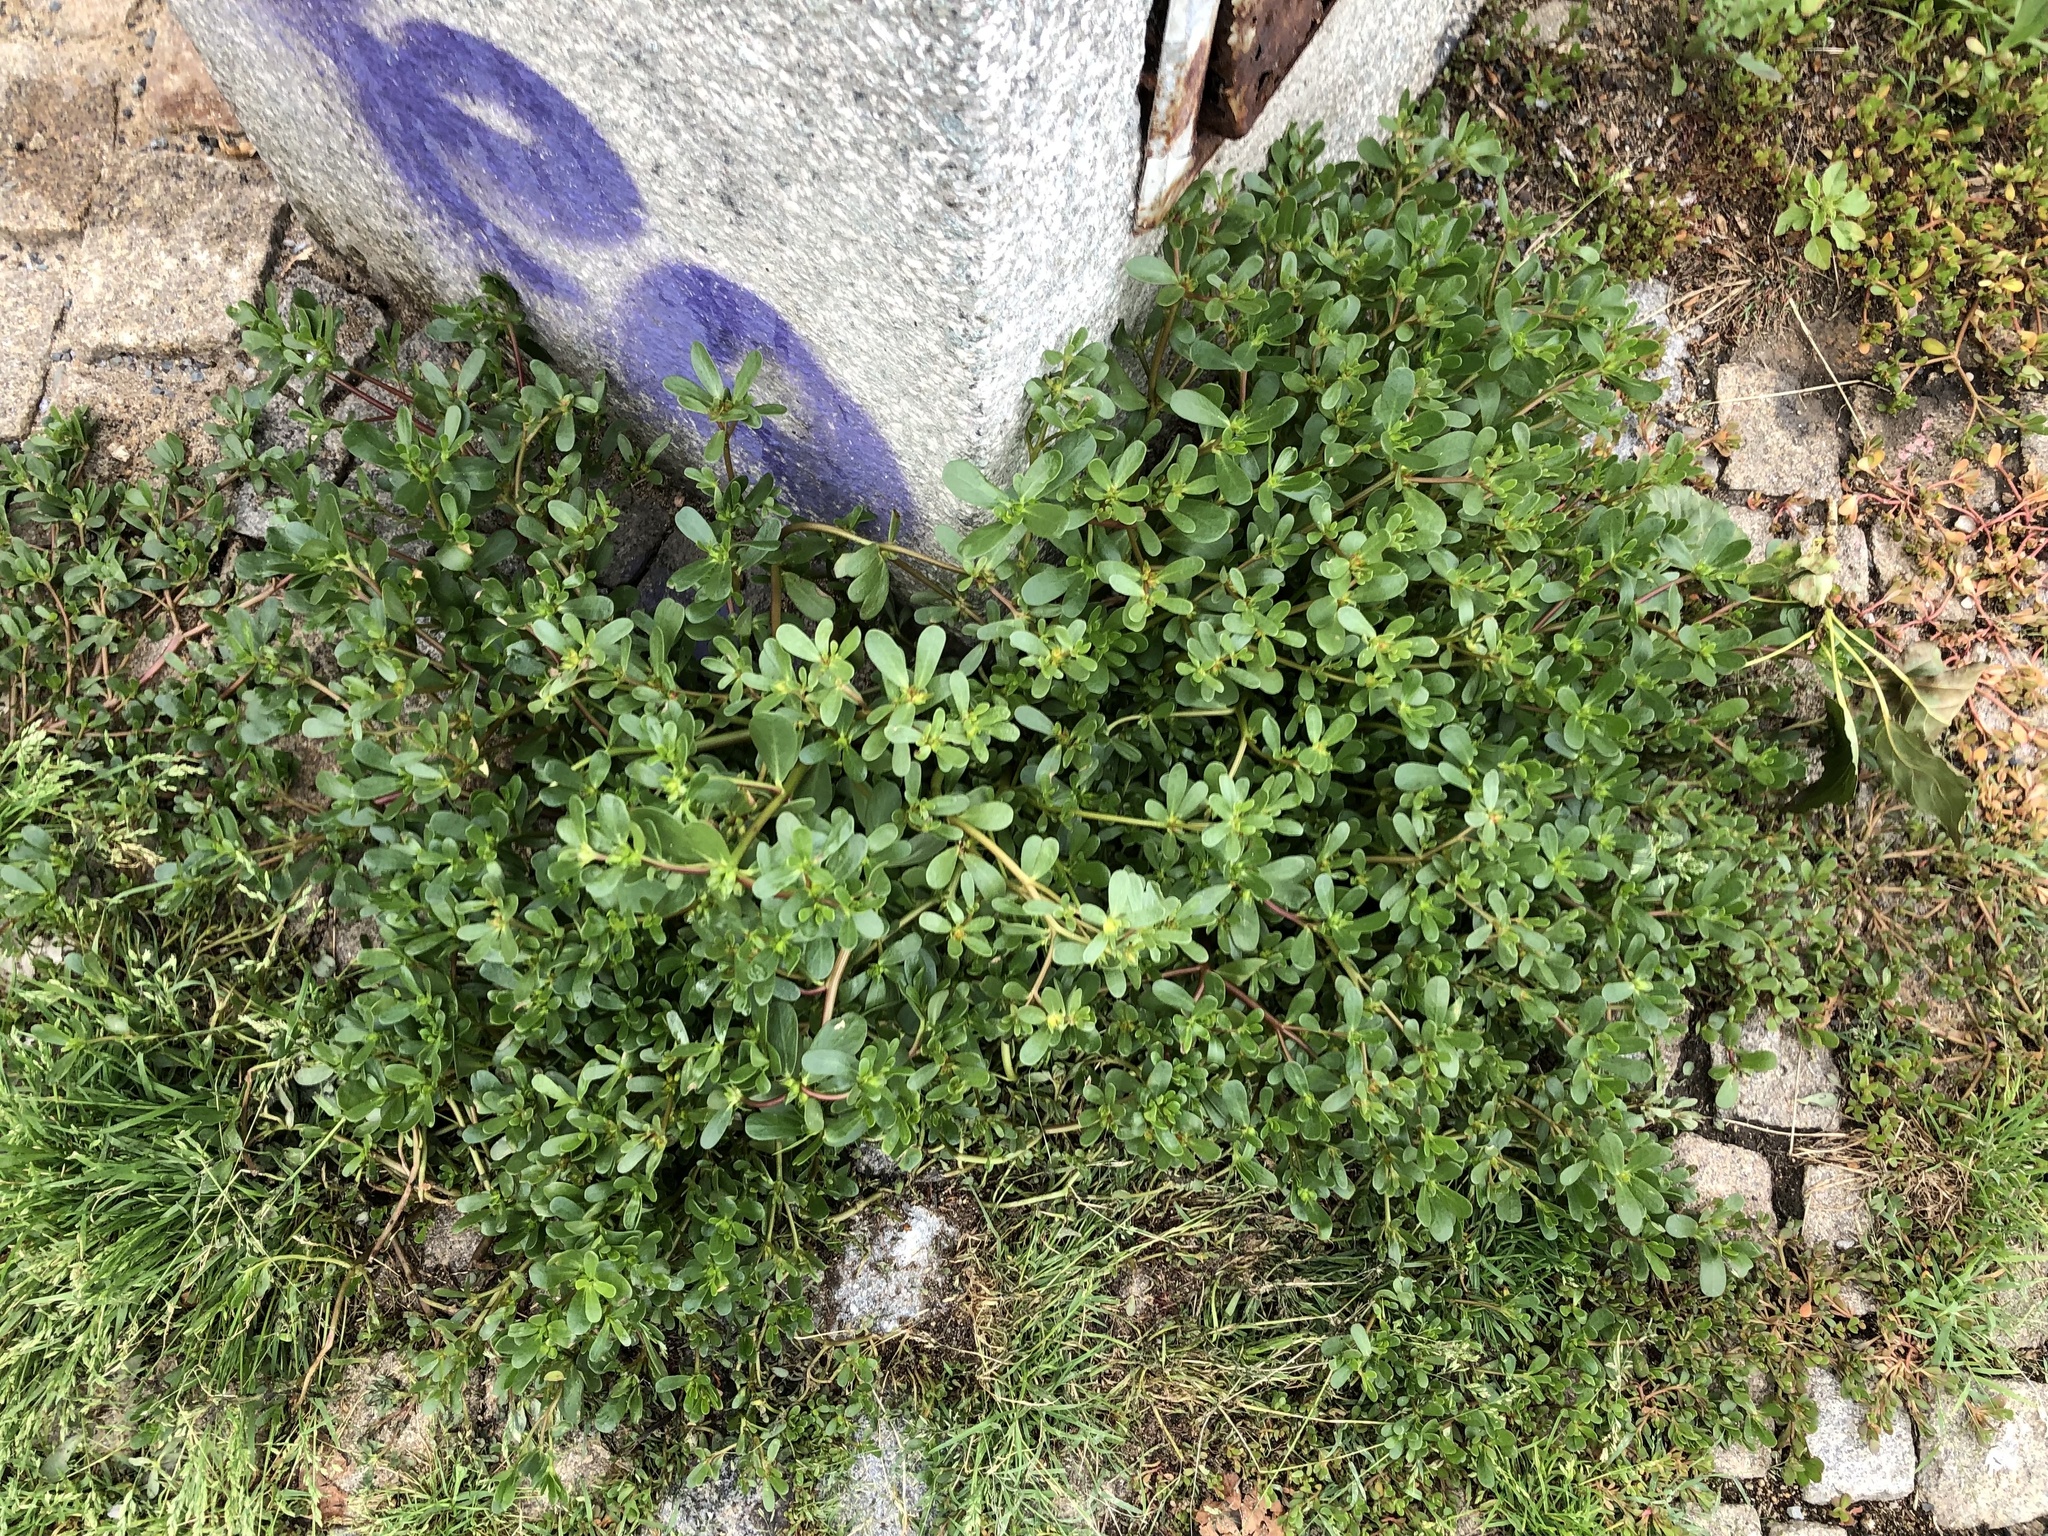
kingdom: Plantae
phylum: Tracheophyta
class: Magnoliopsida
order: Caryophyllales
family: Portulacaceae
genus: Portulaca
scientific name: Portulaca oleracea
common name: Common purslane
